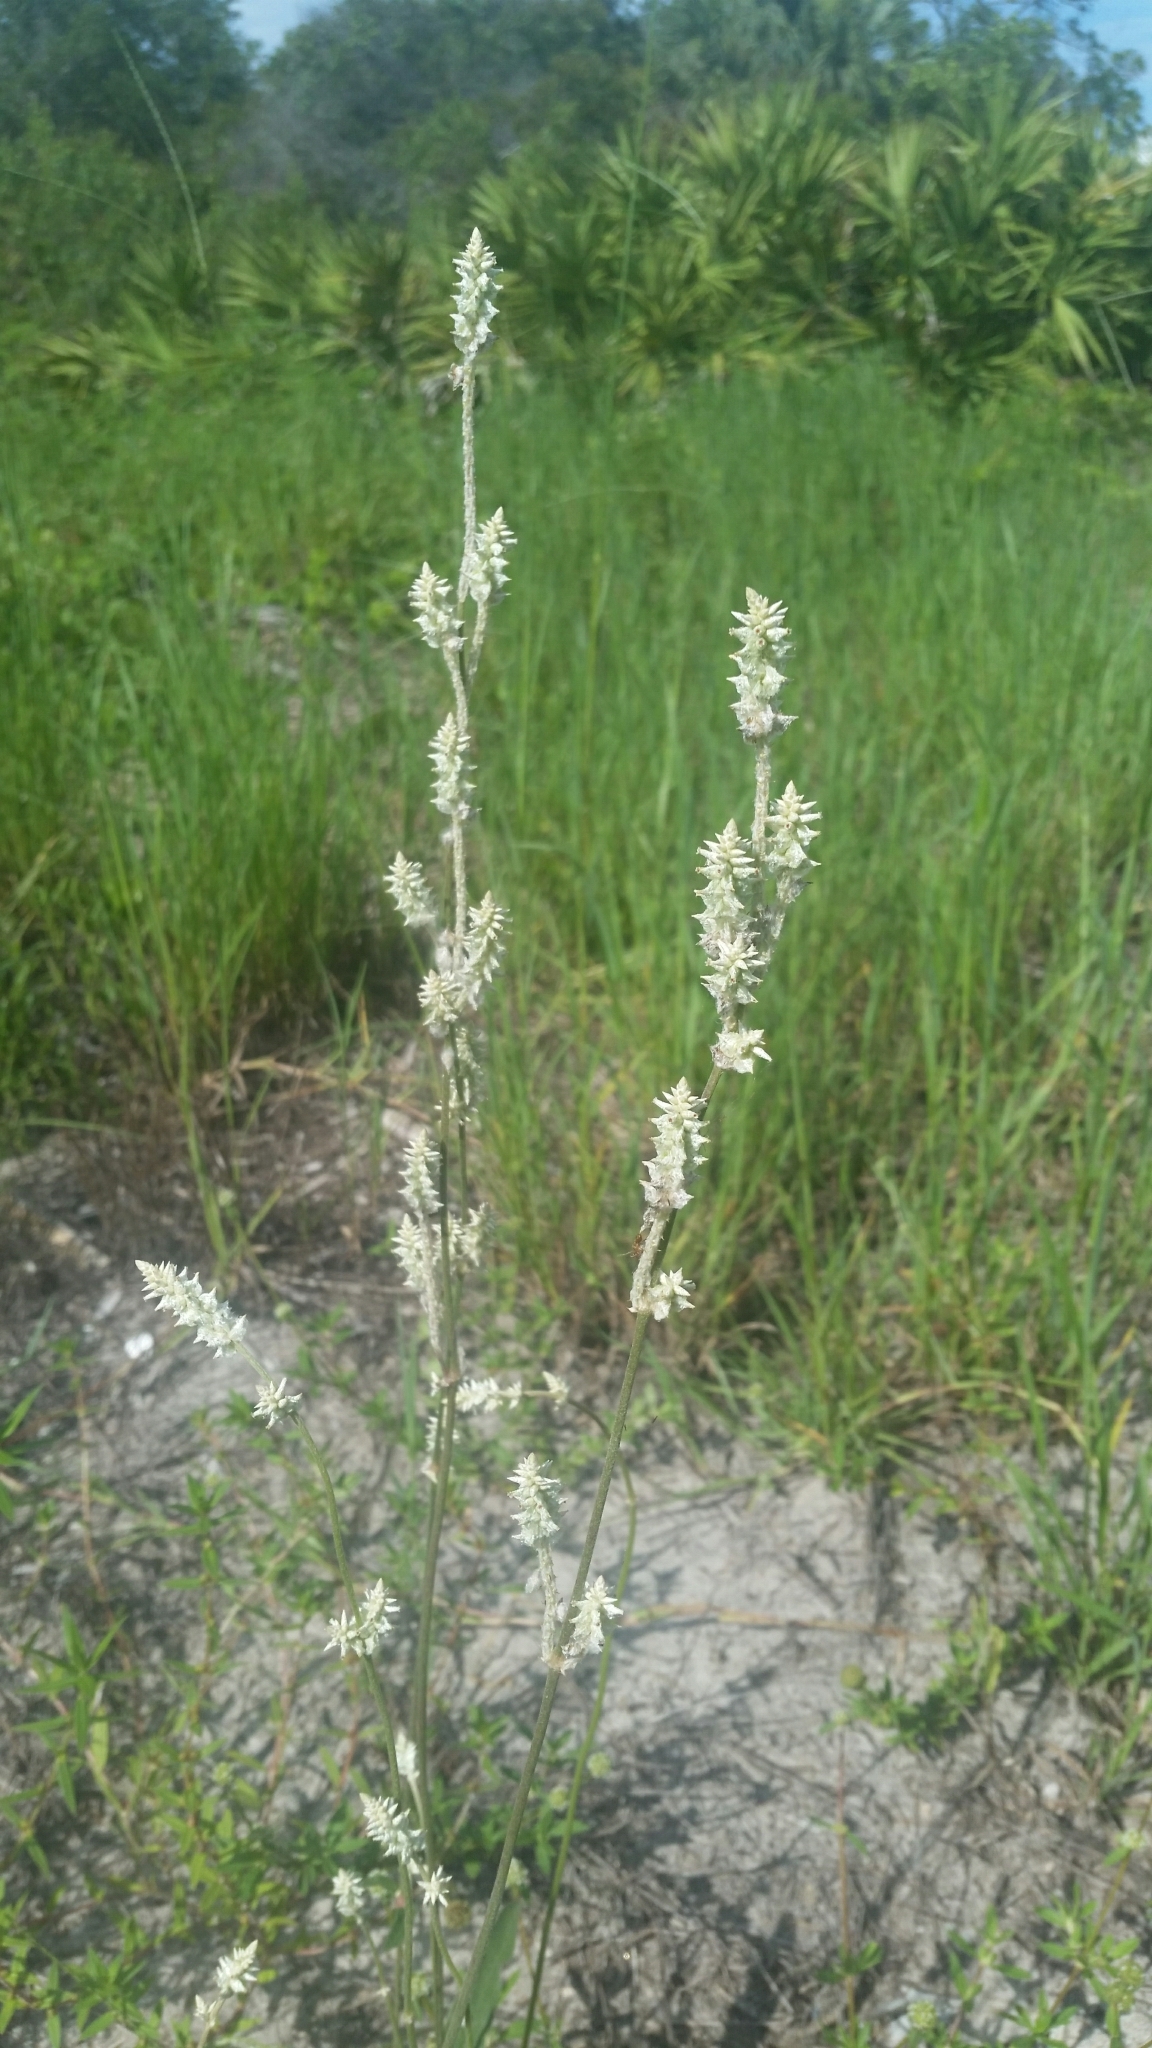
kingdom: Plantae
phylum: Tracheophyta
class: Magnoliopsida
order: Caryophyllales
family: Amaranthaceae
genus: Froelichia
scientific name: Froelichia floridana
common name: Florida snake-cotton
